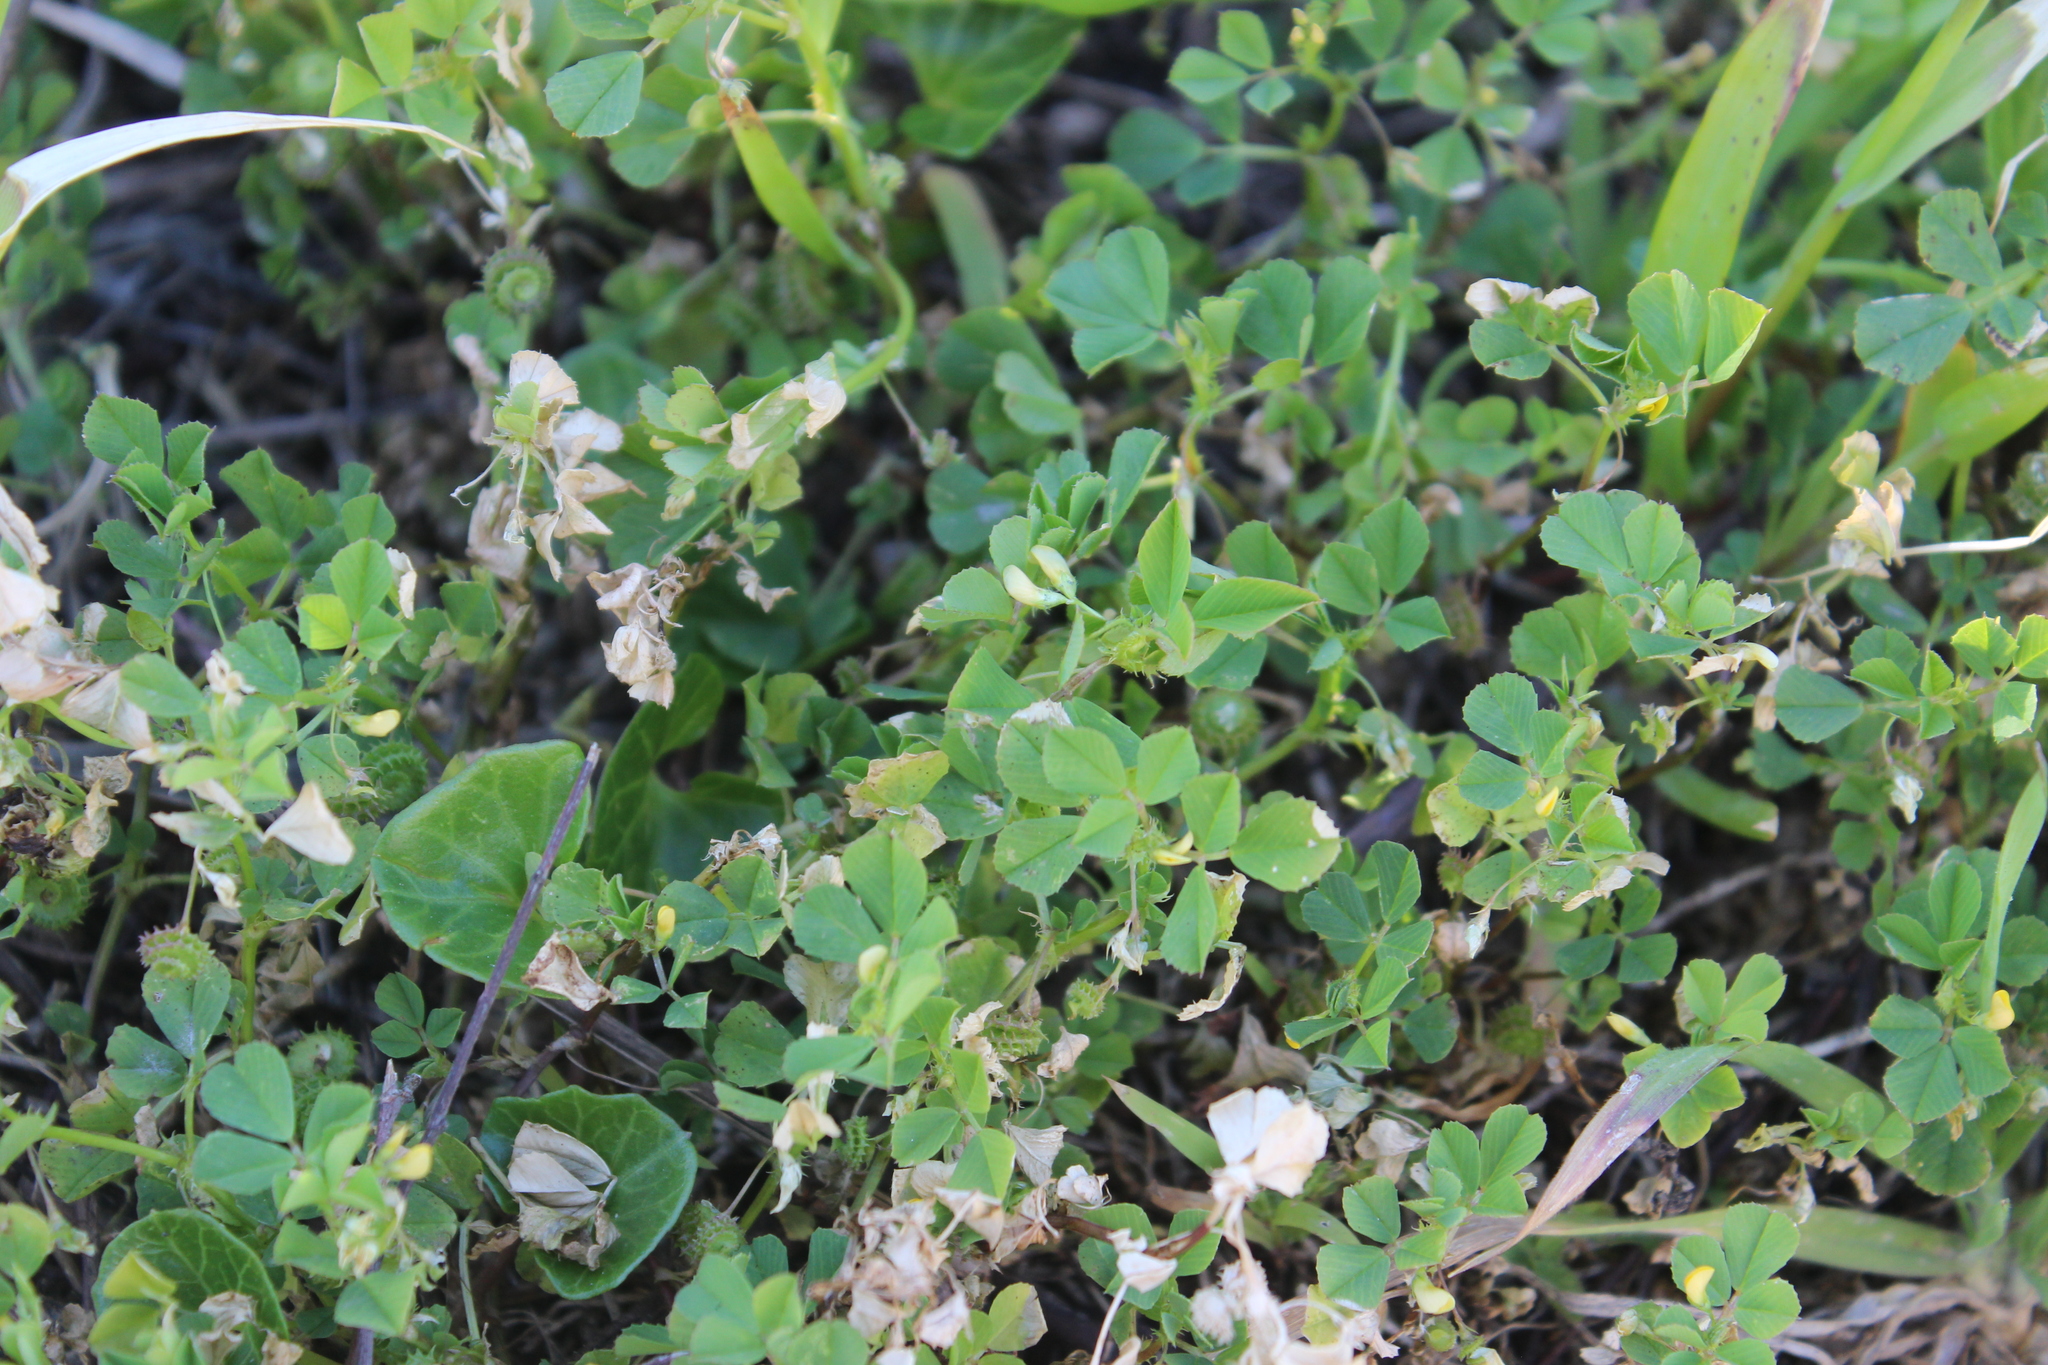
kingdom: Plantae
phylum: Tracheophyta
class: Magnoliopsida
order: Fabales
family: Fabaceae
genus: Medicago
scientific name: Medicago polymorpha
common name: Burclover
